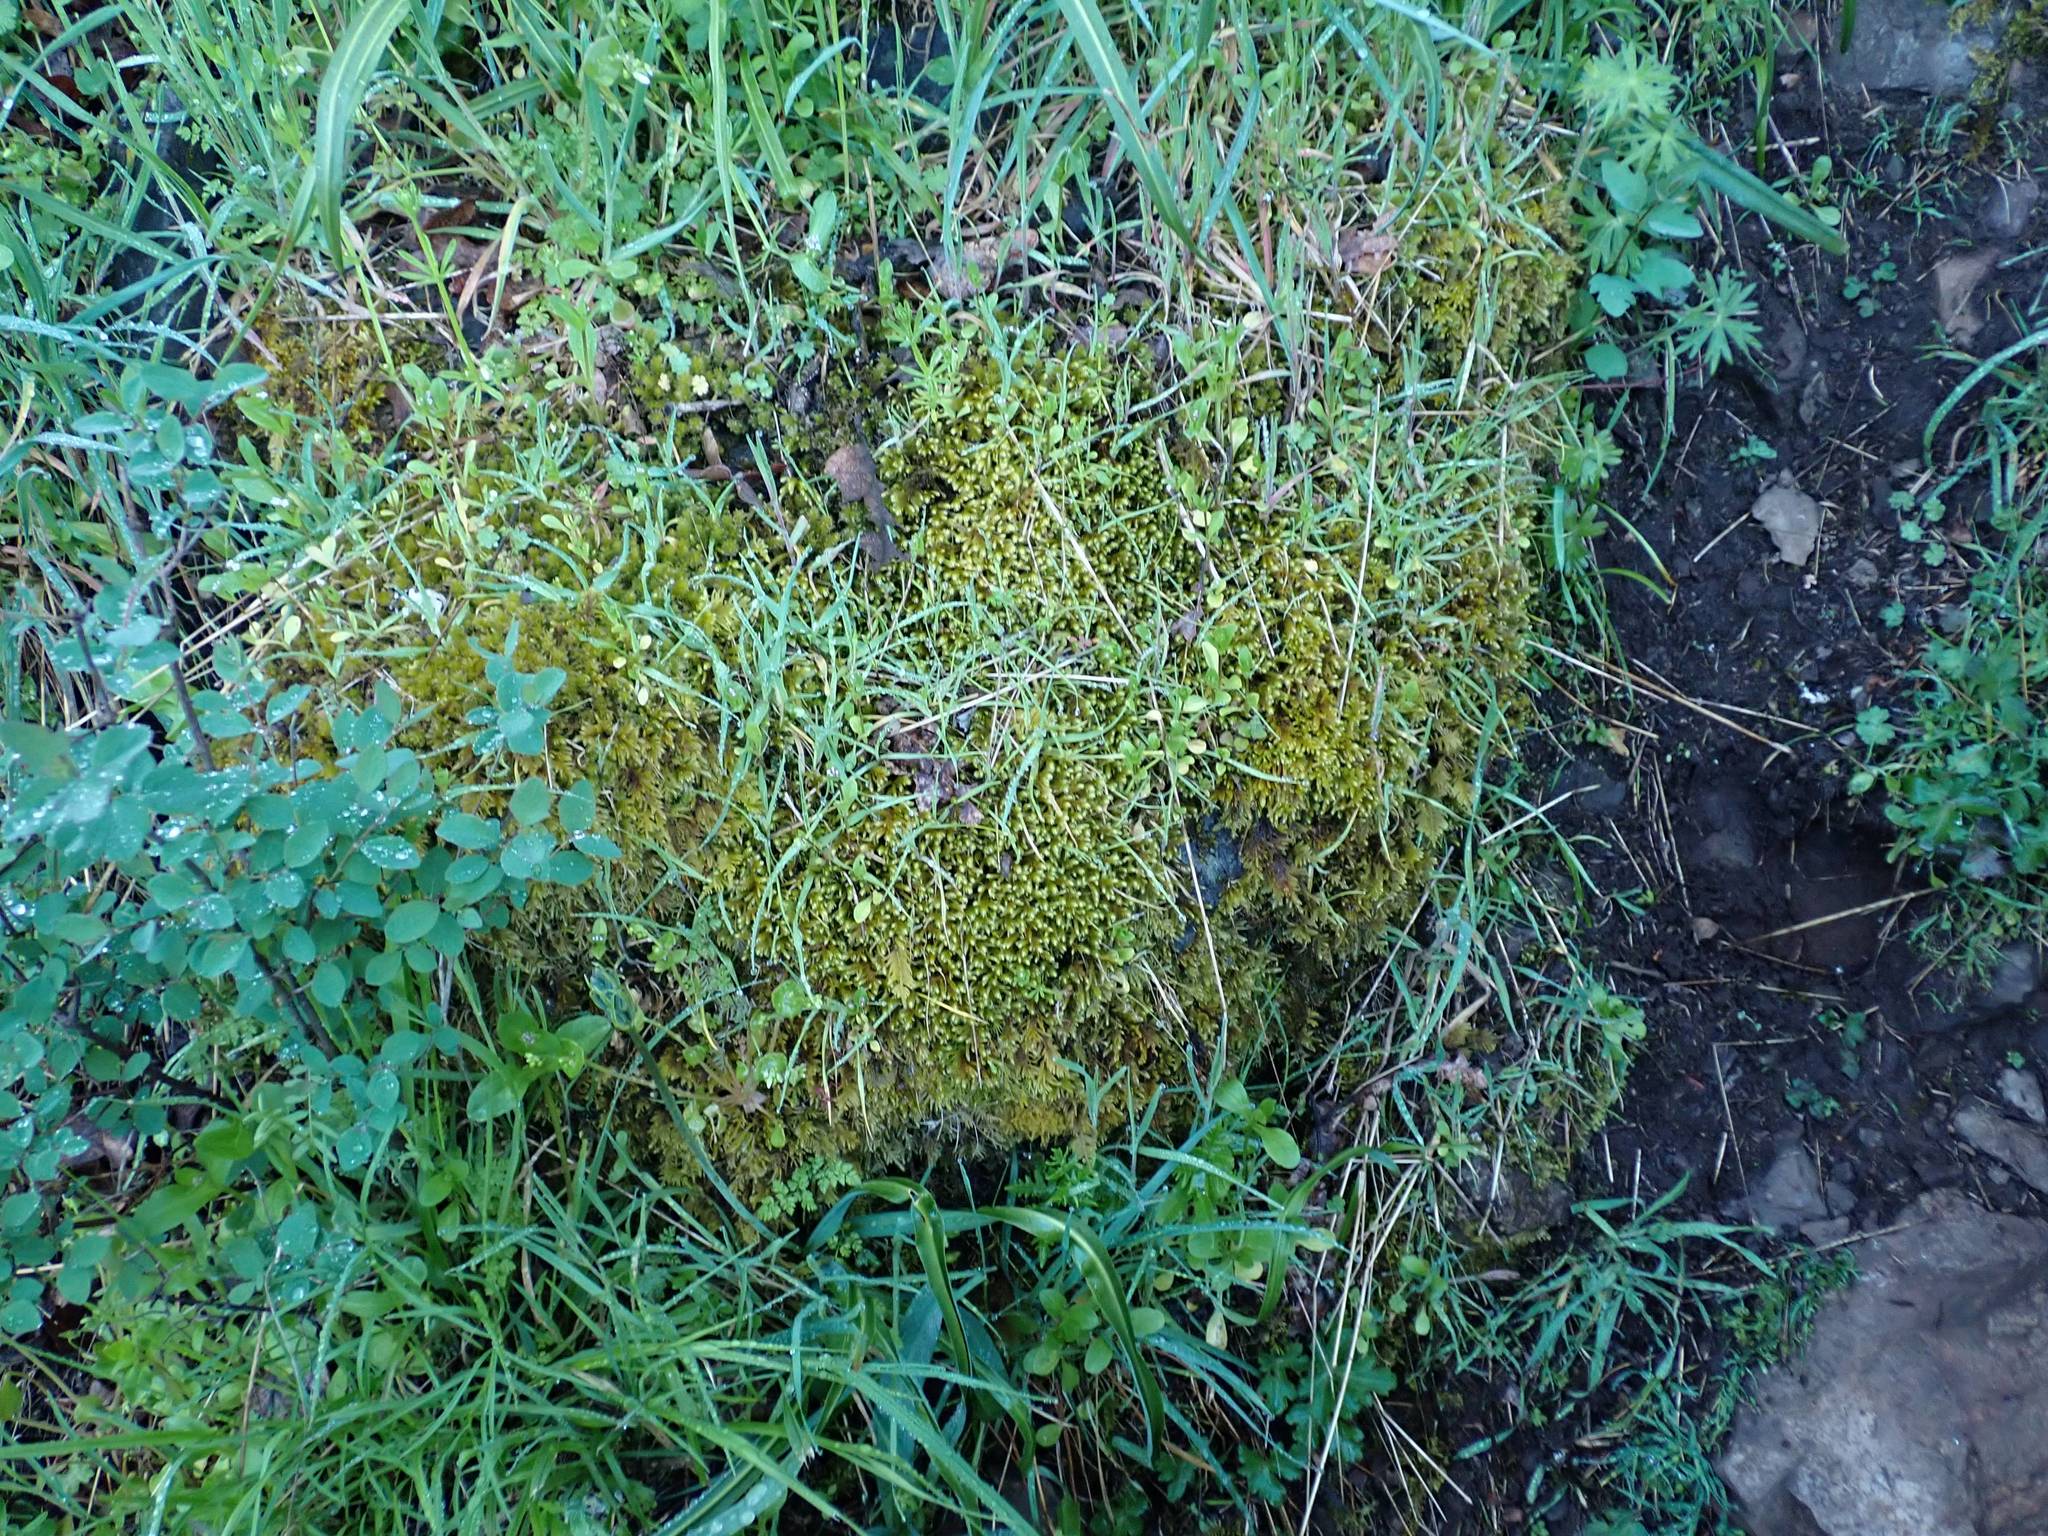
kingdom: Plantae
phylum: Bryophyta
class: Bryopsida
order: Hypnales
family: Antitrichiaceae
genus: Antitrichia
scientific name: Antitrichia curtipendula
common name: Pendulous wing-moss
